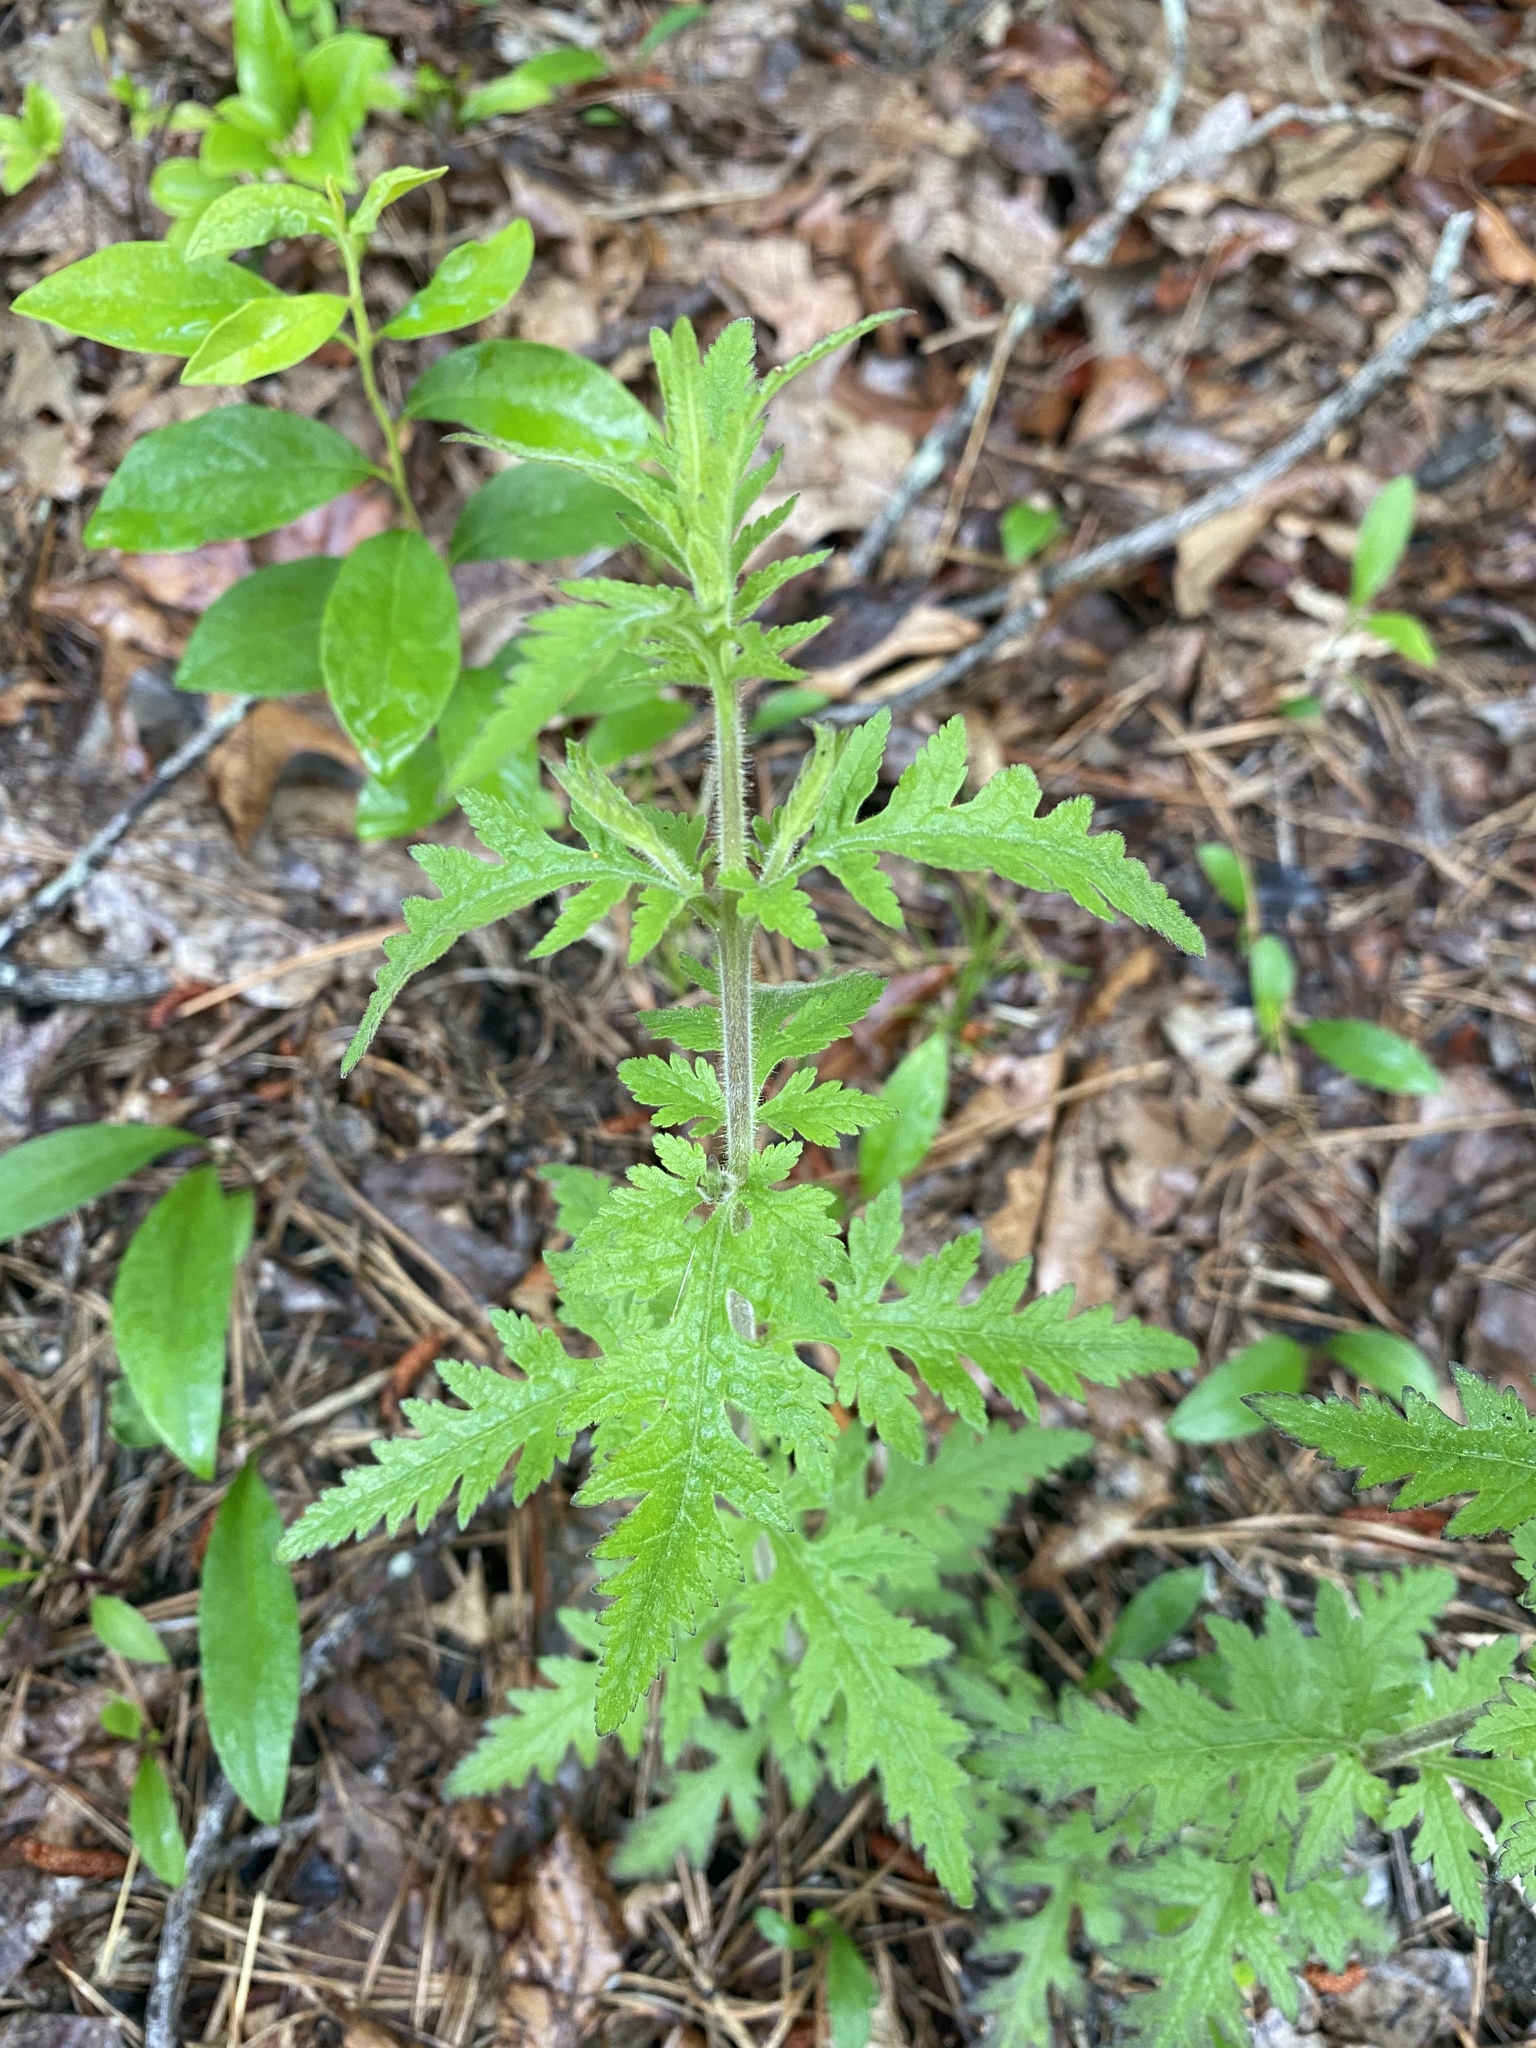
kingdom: Plantae
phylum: Tracheophyta
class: Magnoliopsida
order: Lamiales
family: Orobanchaceae
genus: Aureolaria
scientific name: Aureolaria pedicularia
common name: Annual false foxglove
